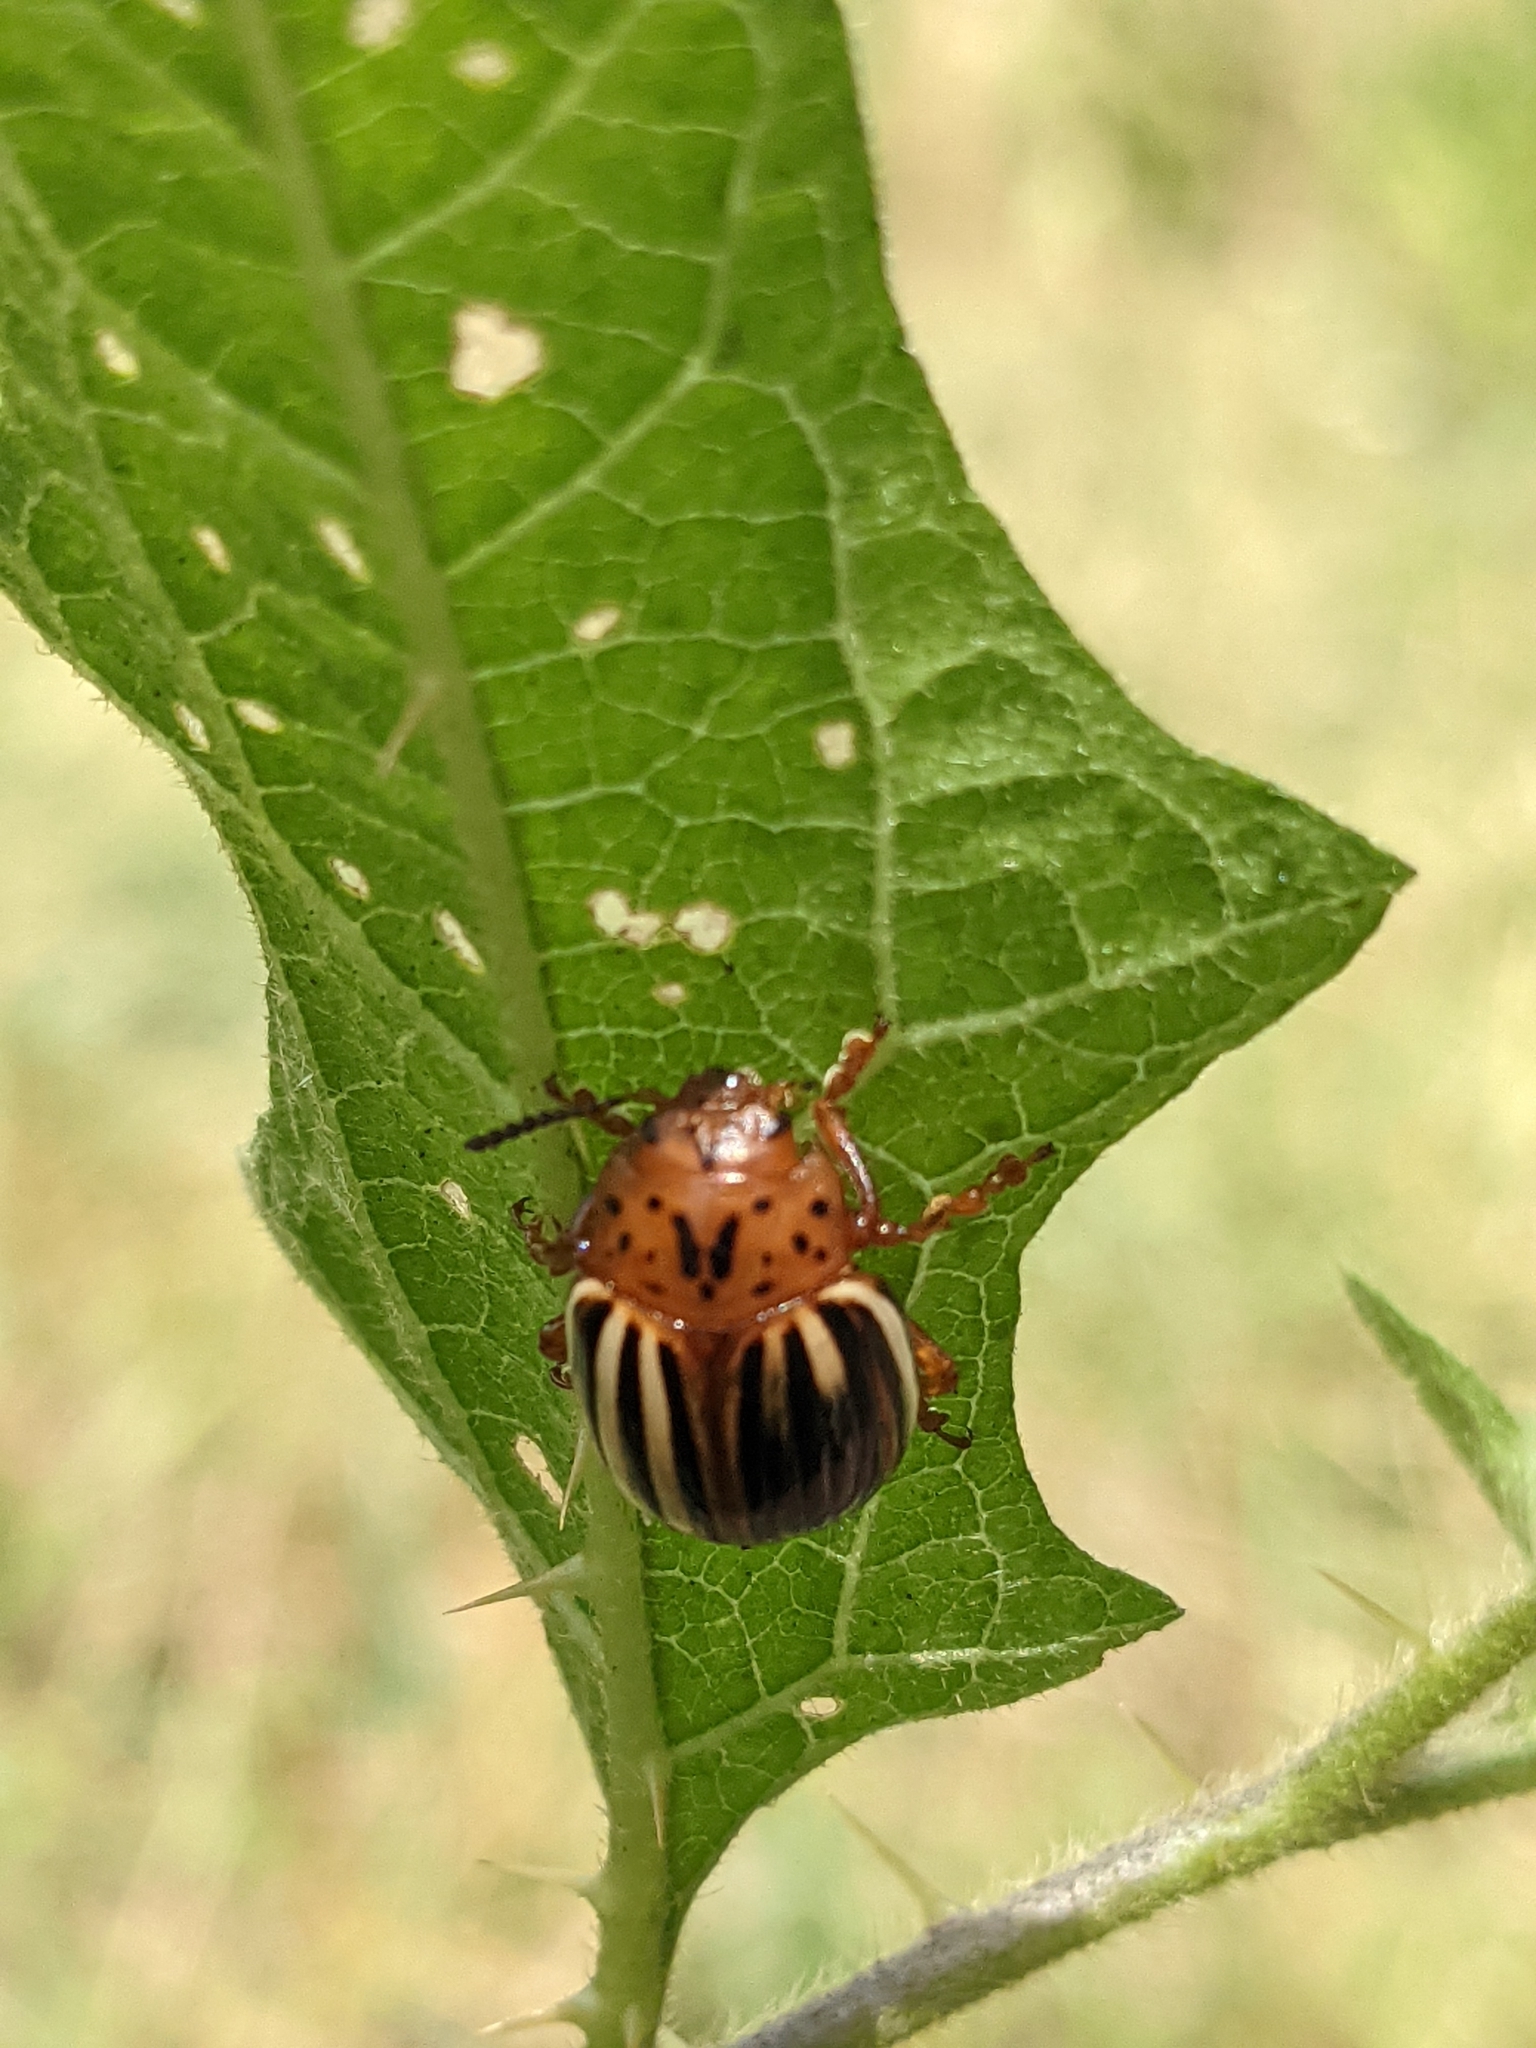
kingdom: Animalia
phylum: Arthropoda
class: Insecta
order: Coleoptera
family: Chrysomelidae
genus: Leptinotarsa
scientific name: Leptinotarsa juncta
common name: False potato beetle
